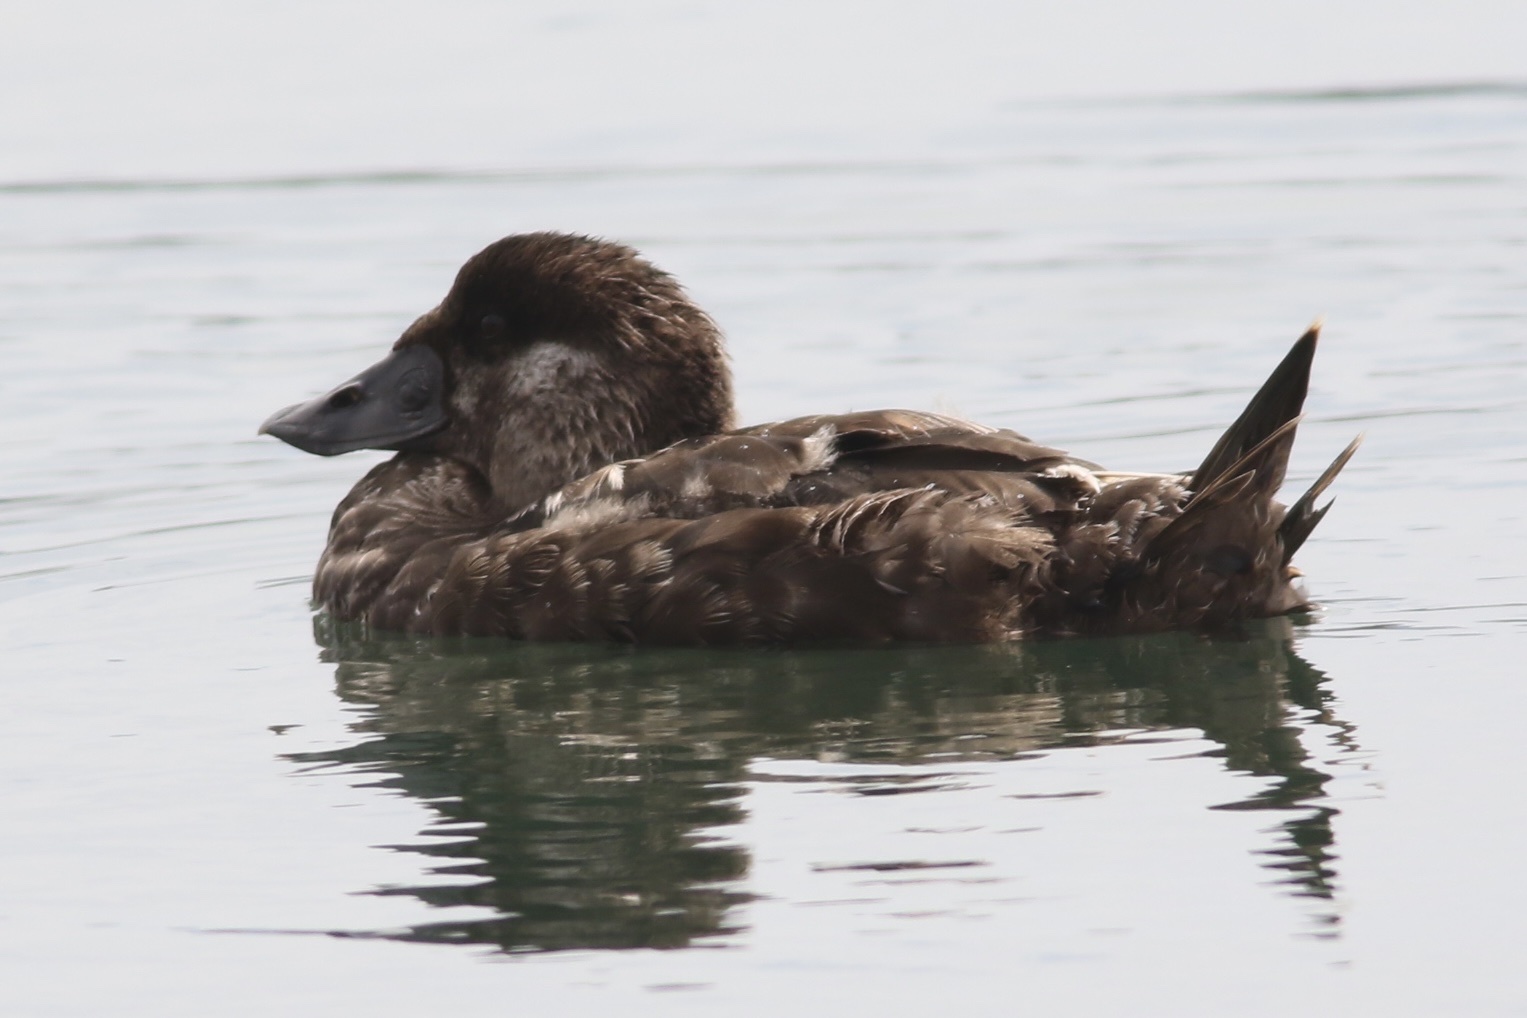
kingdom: Animalia
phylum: Chordata
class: Aves
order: Anseriformes
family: Anatidae
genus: Melanitta
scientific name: Melanitta perspicillata
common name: Surf scoter
